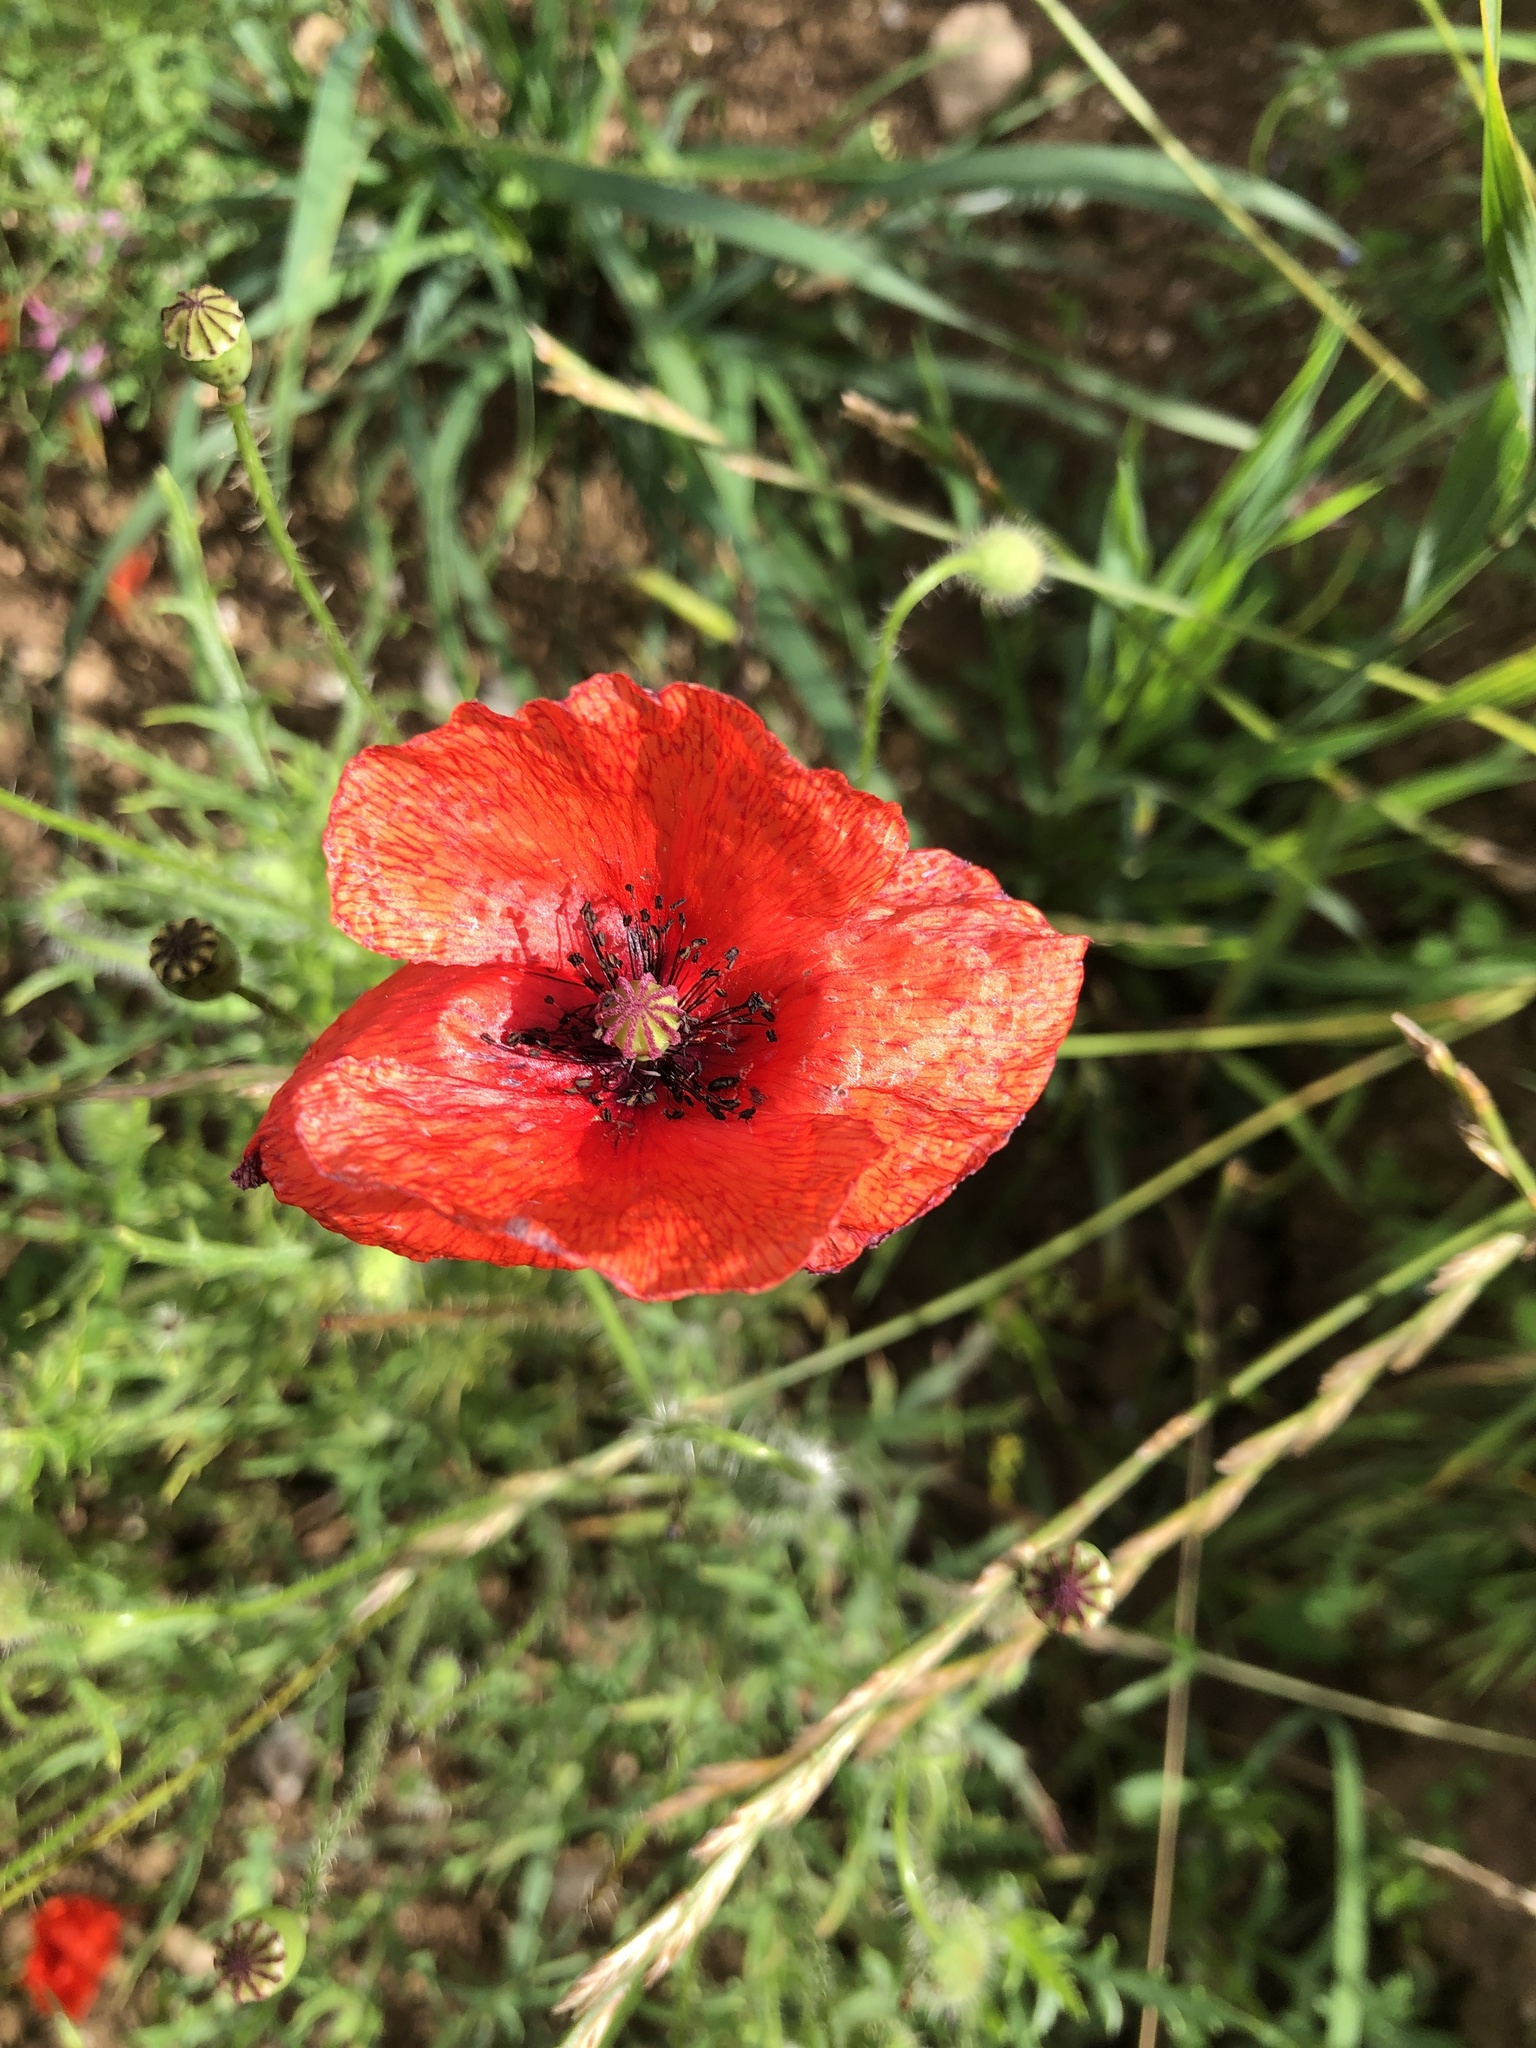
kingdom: Plantae
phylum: Tracheophyta
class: Magnoliopsida
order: Ranunculales
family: Papaveraceae
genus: Papaver
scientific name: Papaver rhoeas
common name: Corn poppy
